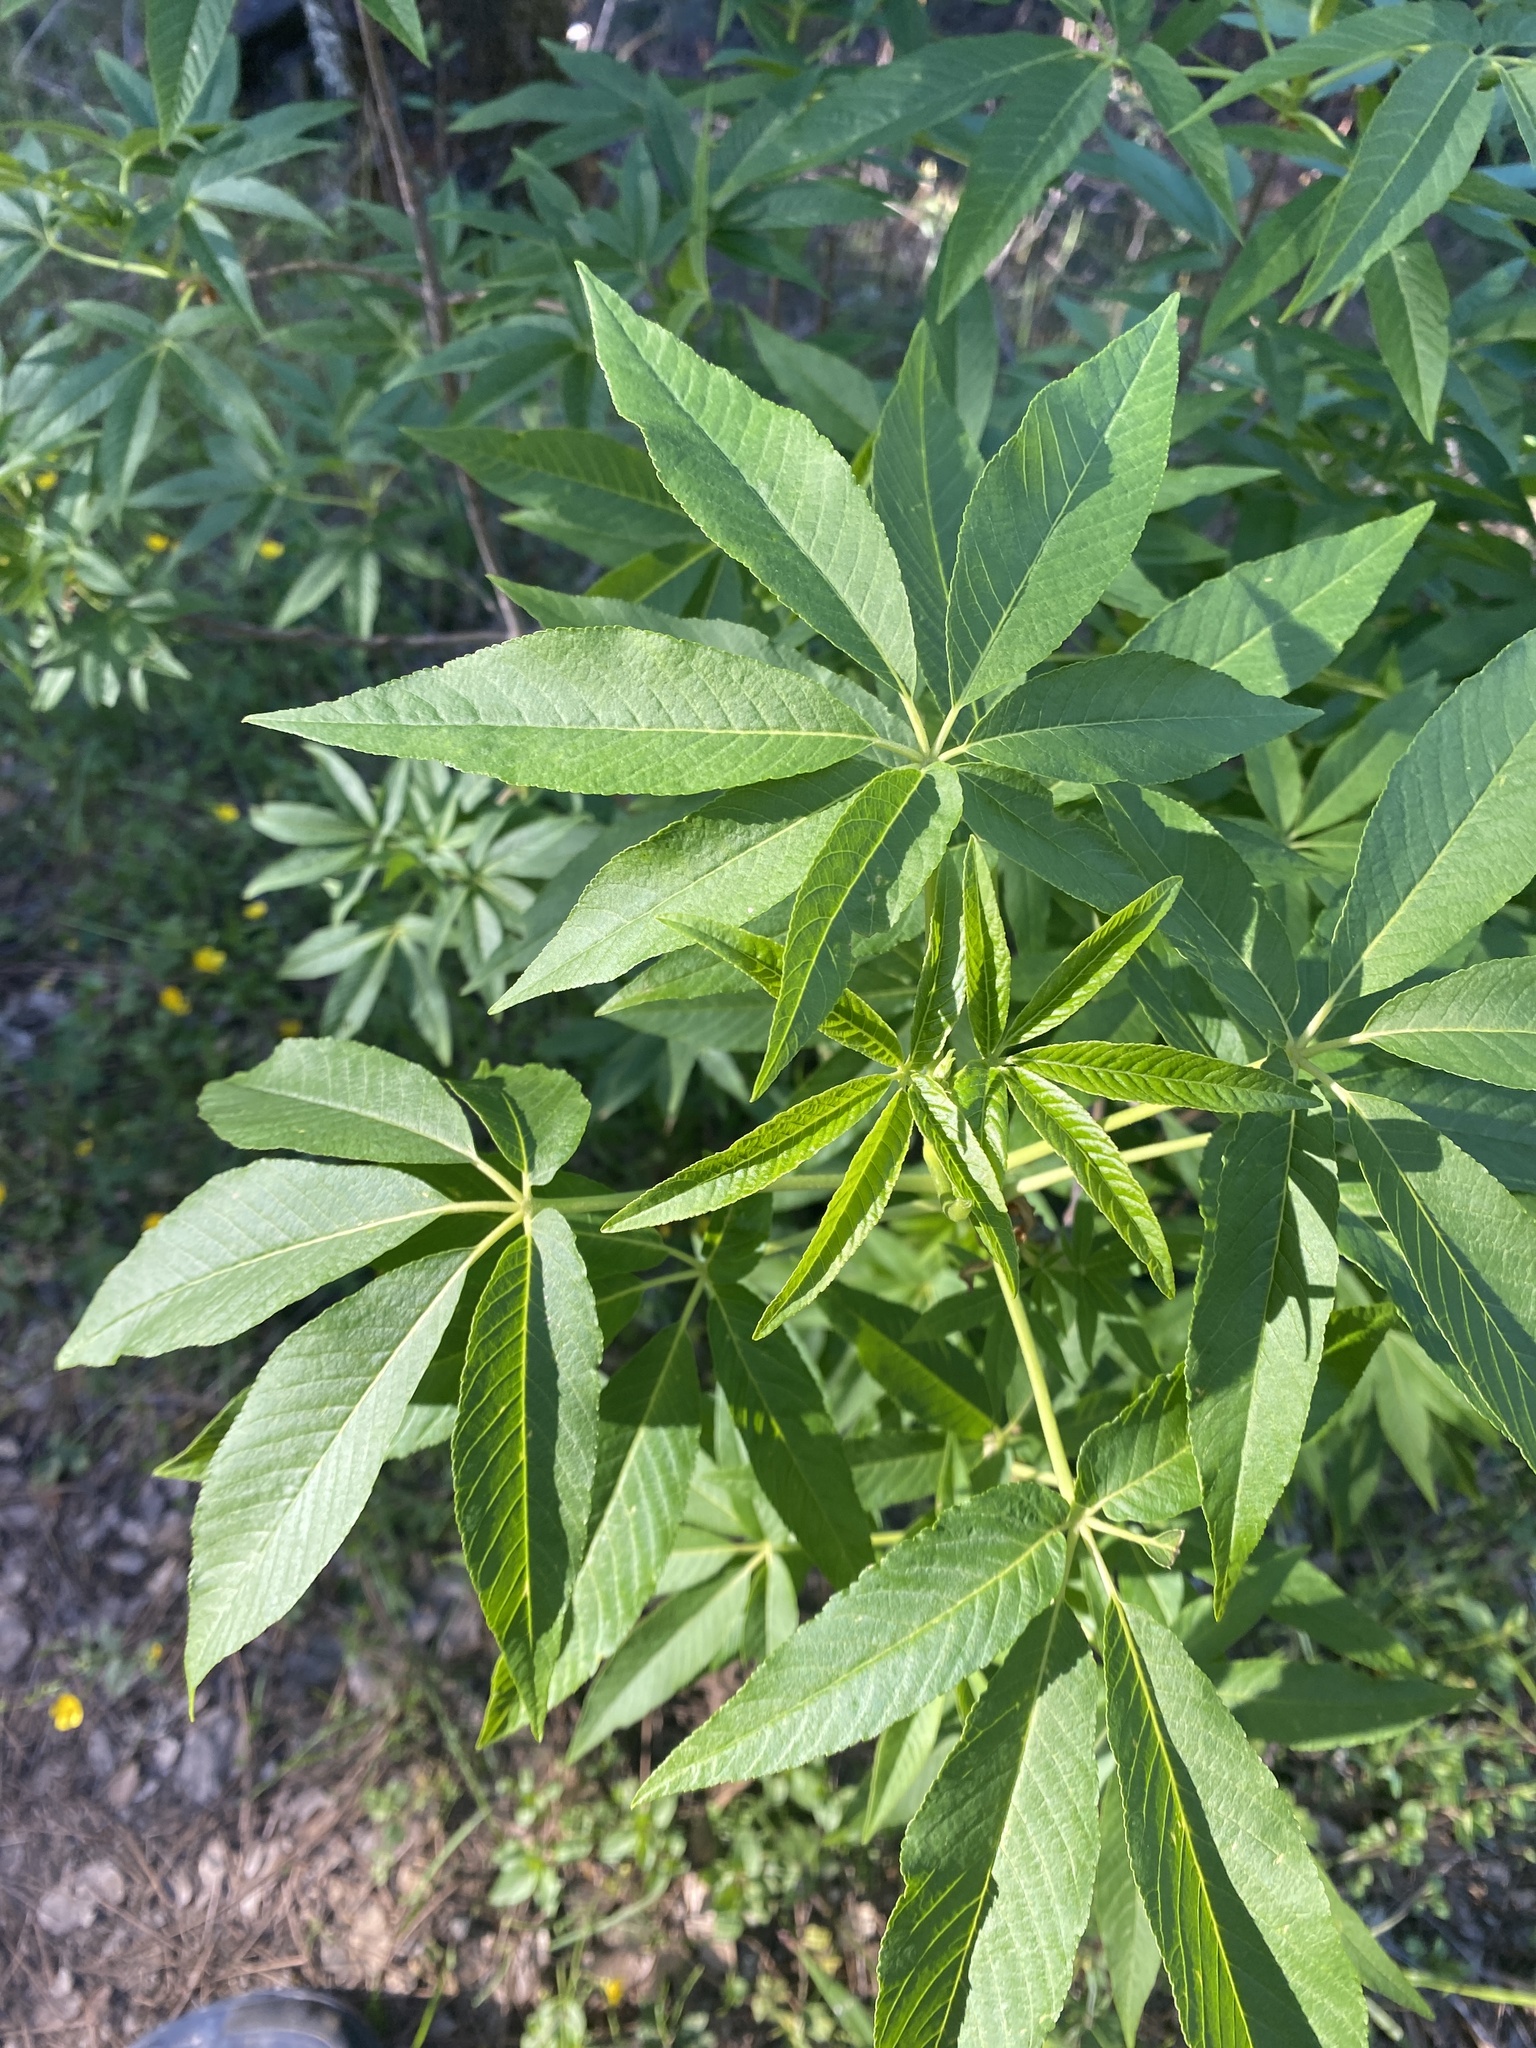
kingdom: Plantae
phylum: Tracheophyta
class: Magnoliopsida
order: Sapindales
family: Sapindaceae
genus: Aesculus
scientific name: Aesculus californica
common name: California buckeye
